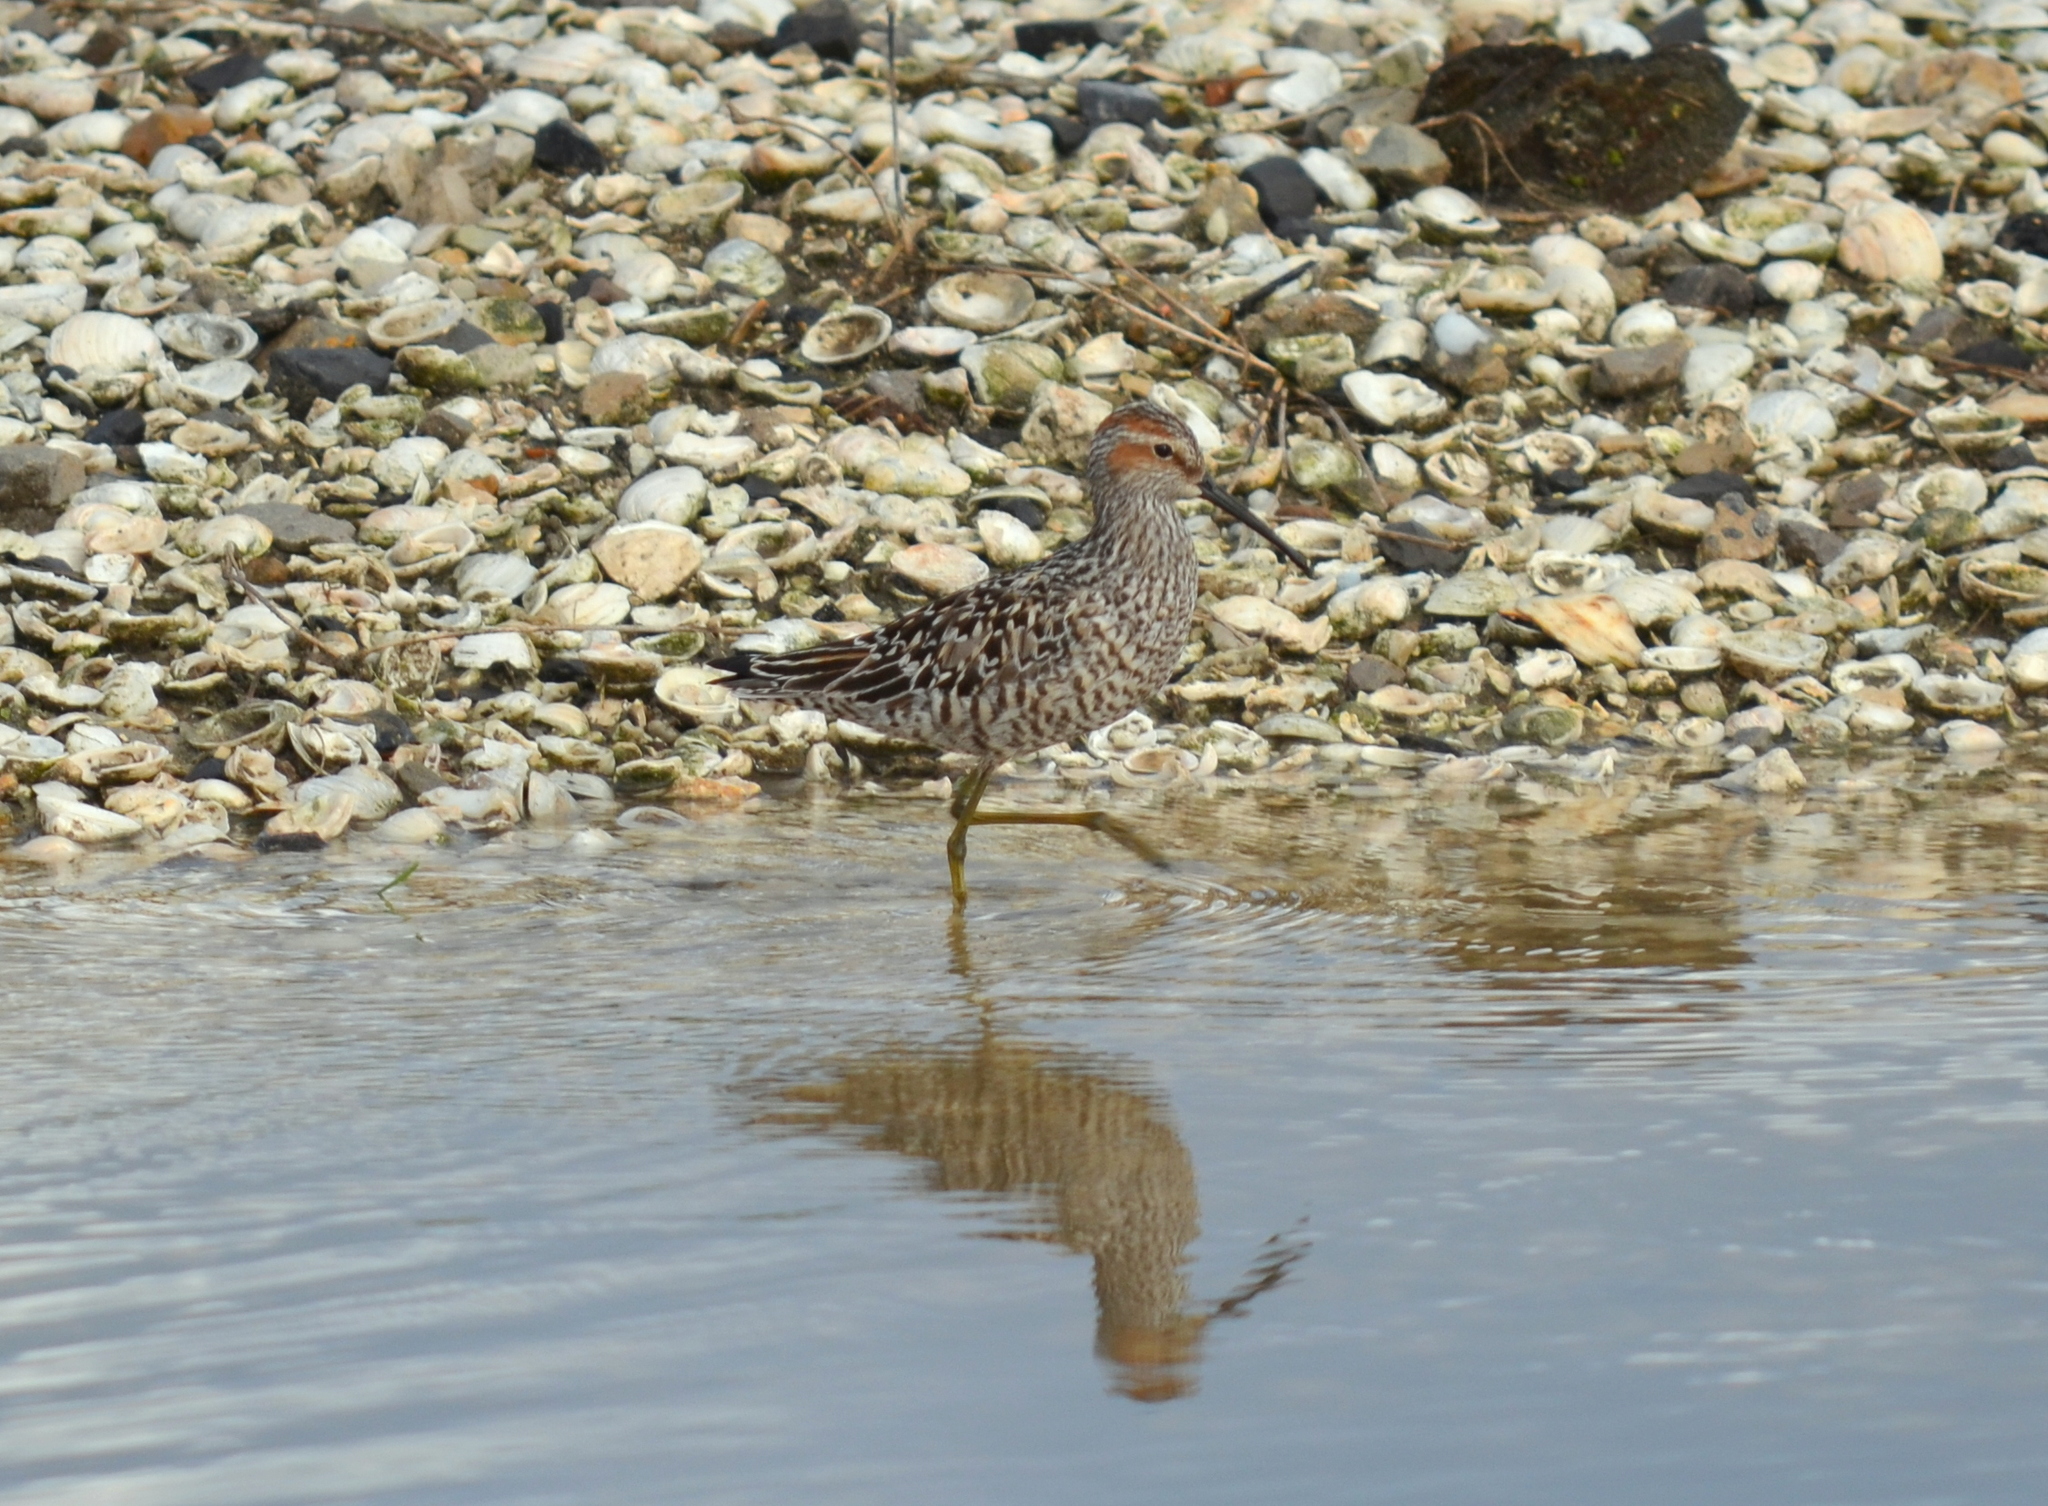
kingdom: Animalia
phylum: Chordata
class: Aves
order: Charadriiformes
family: Scolopacidae
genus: Calidris
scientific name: Calidris himantopus
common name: Stilt sandpiper
